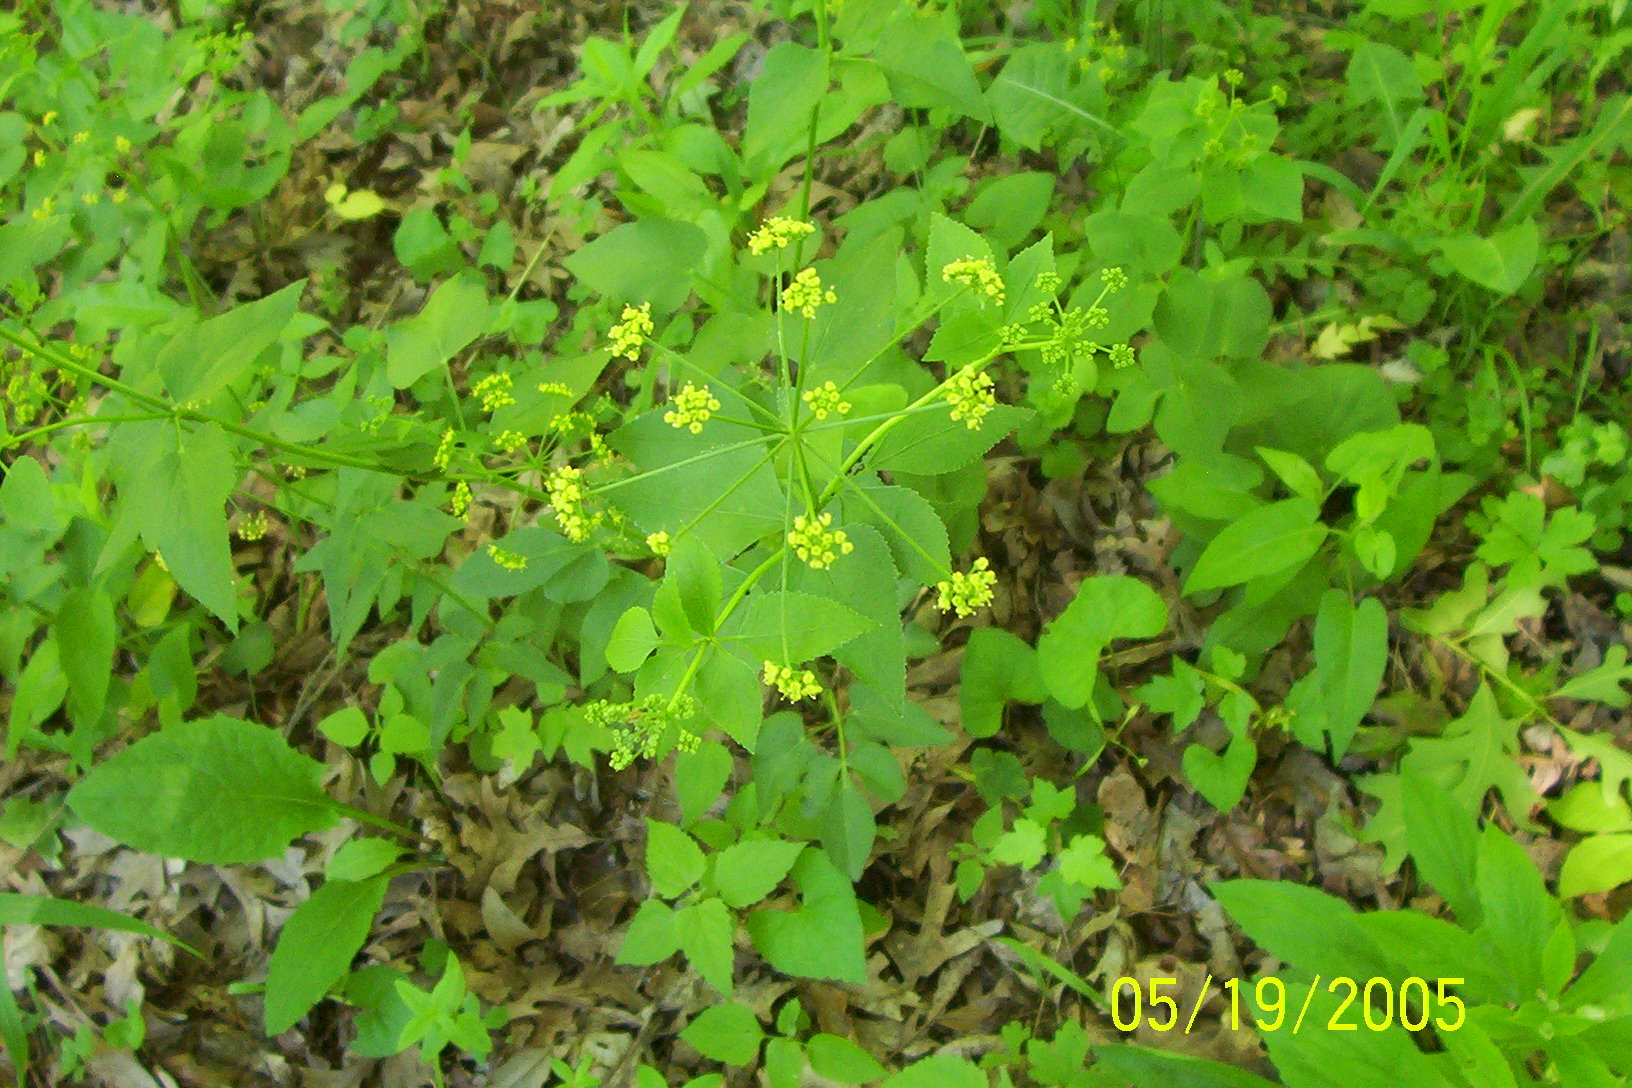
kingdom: Plantae
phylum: Tracheophyta
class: Magnoliopsida
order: Apiales
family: Apiaceae
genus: Taenidia
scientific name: Taenidia integerrima
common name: Golden alexander
